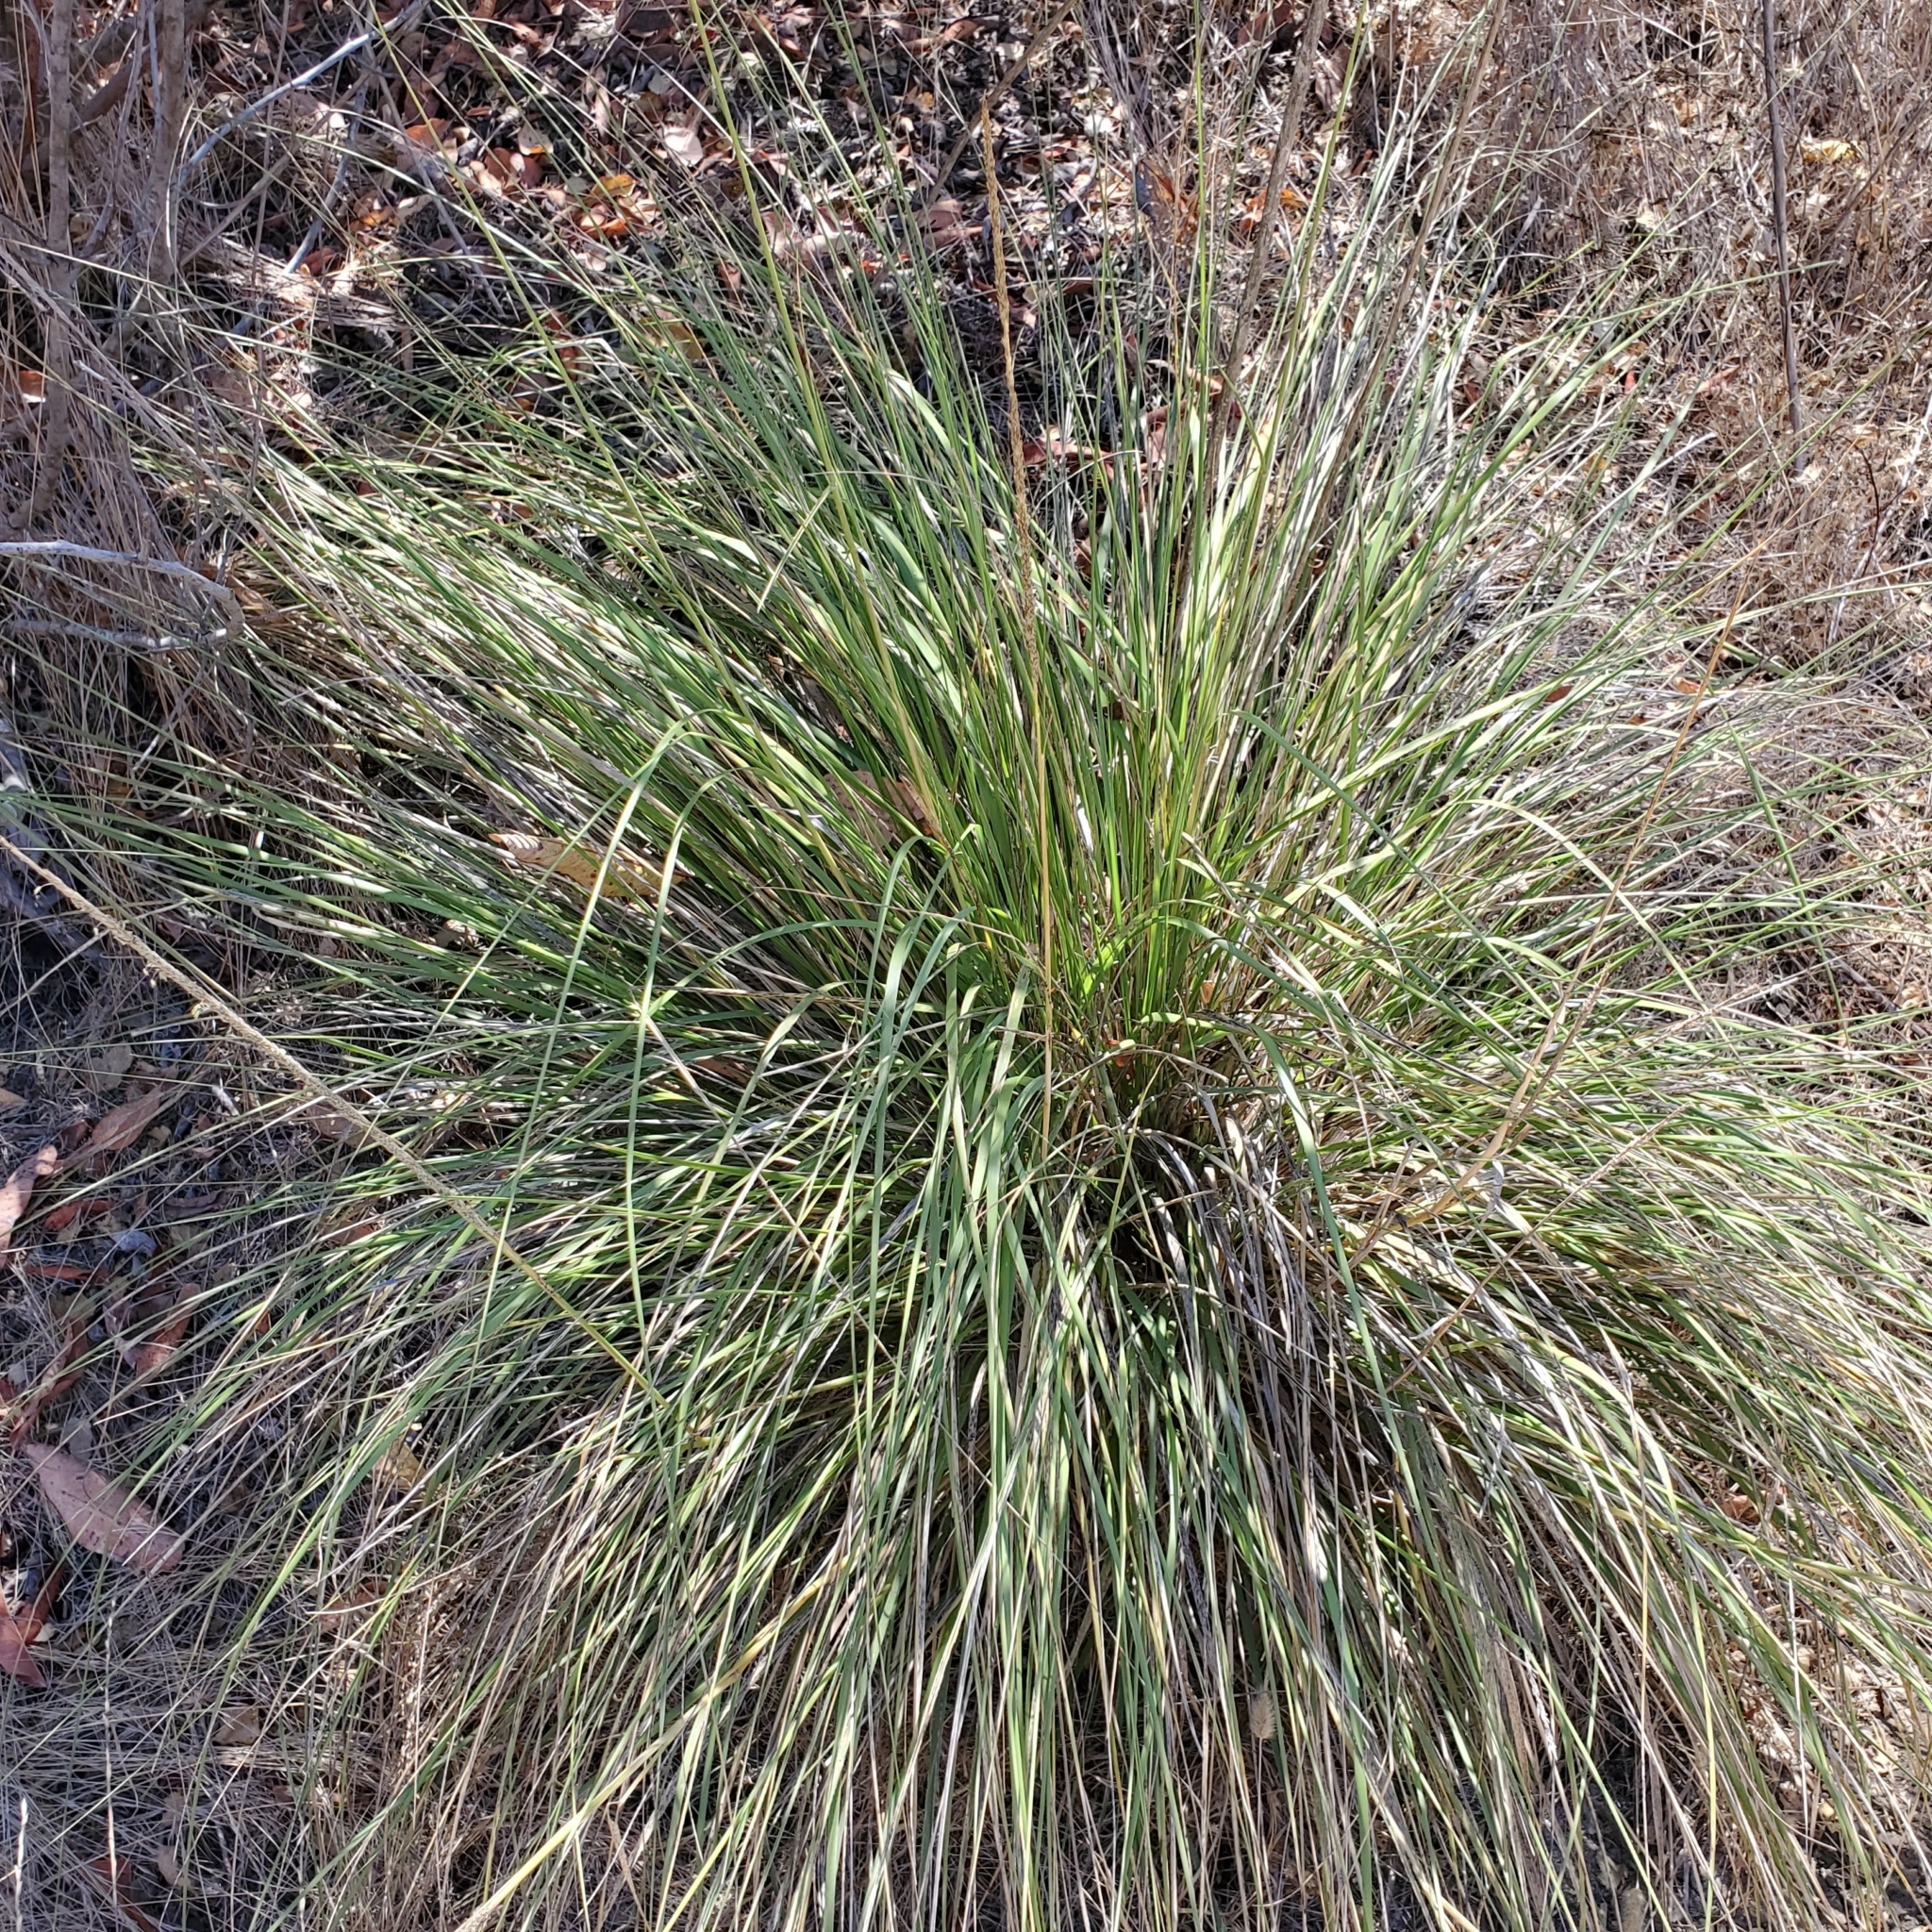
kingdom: Plantae
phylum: Tracheophyta
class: Liliopsida
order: Poales
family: Poaceae
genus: Muhlenbergia
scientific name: Muhlenbergia rigens
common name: Deer grass
